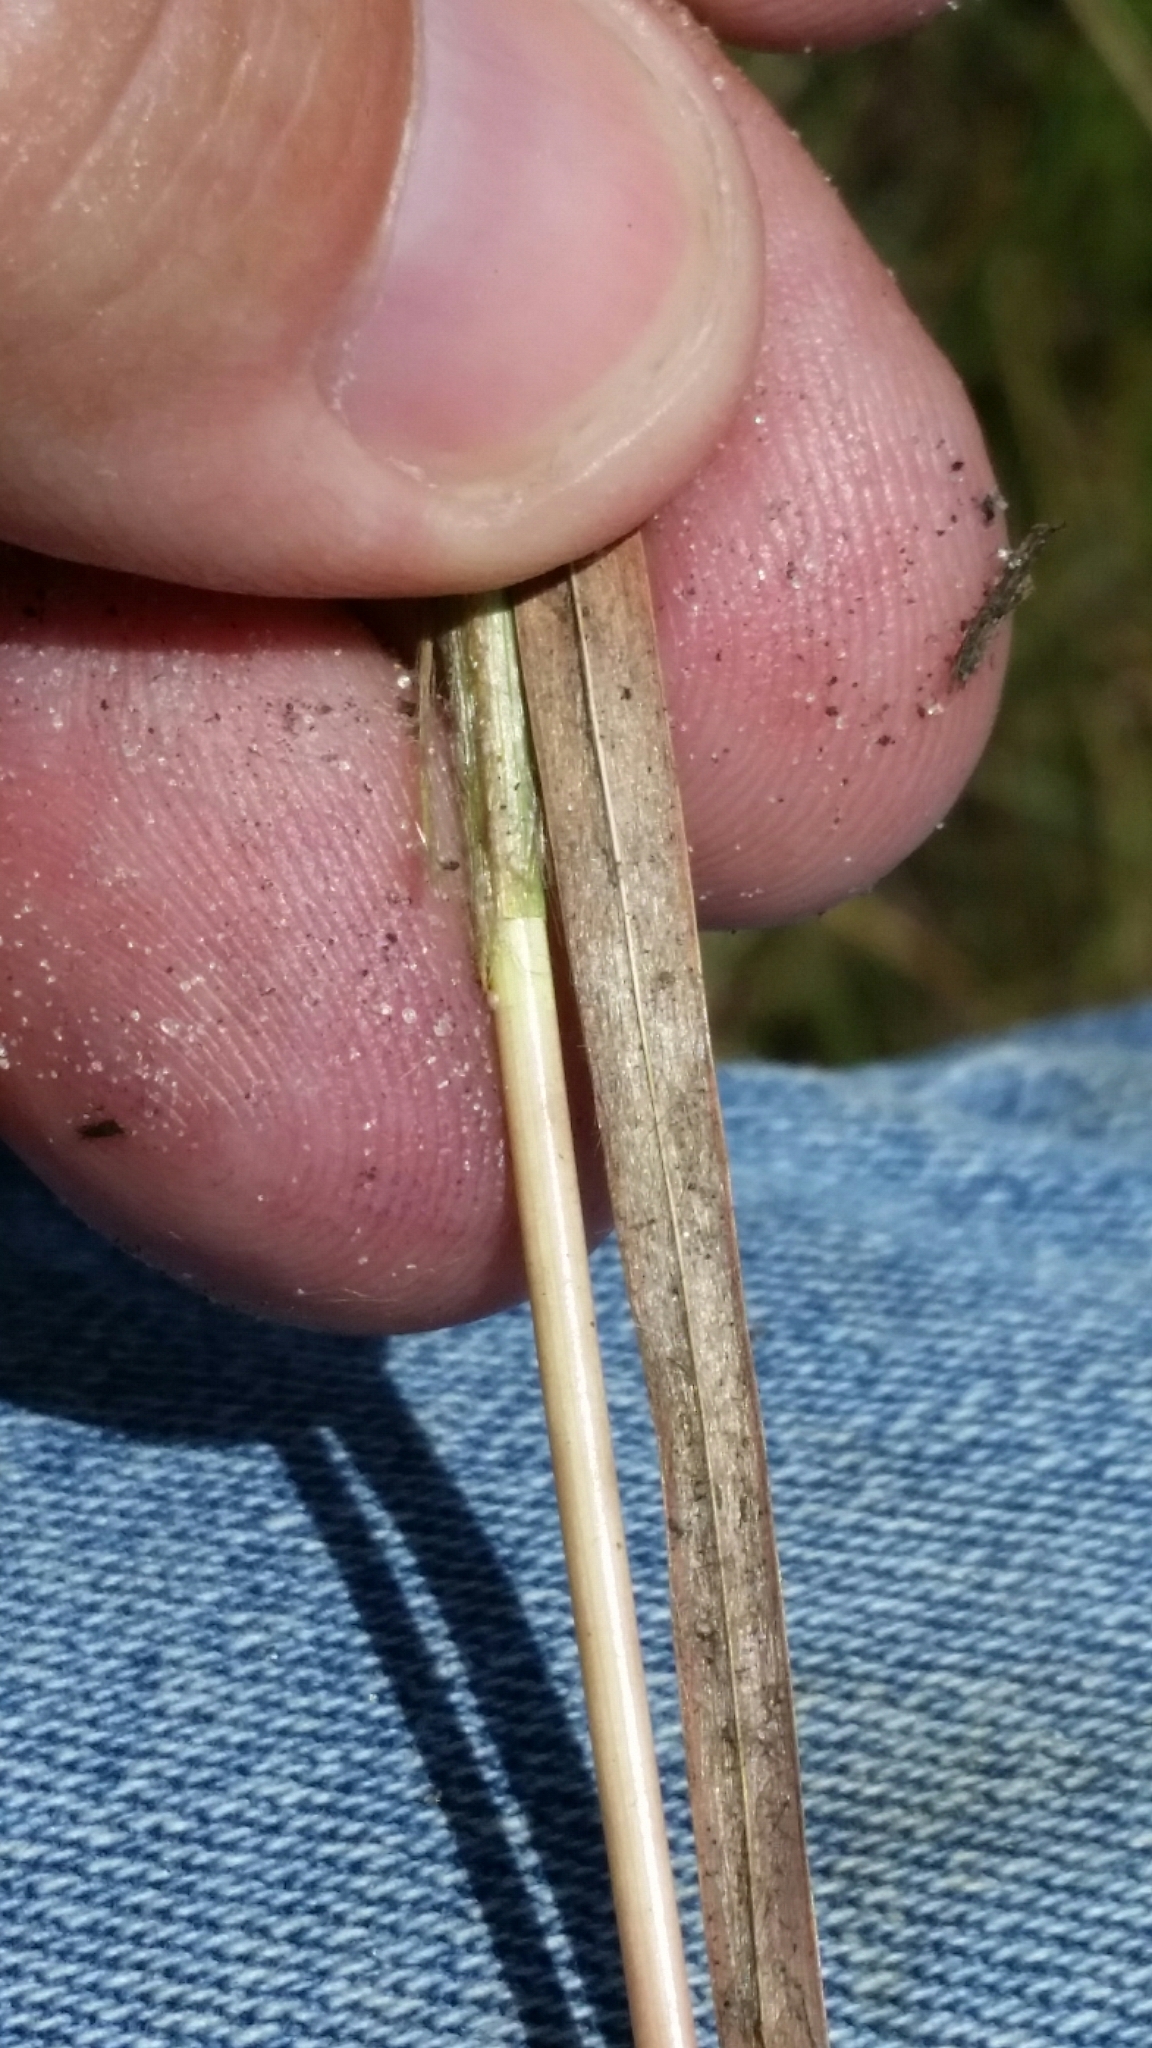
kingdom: Plantae
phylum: Tracheophyta
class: Liliopsida
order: Poales
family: Poaceae
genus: Andropogon
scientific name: Andropogon longiberbis
